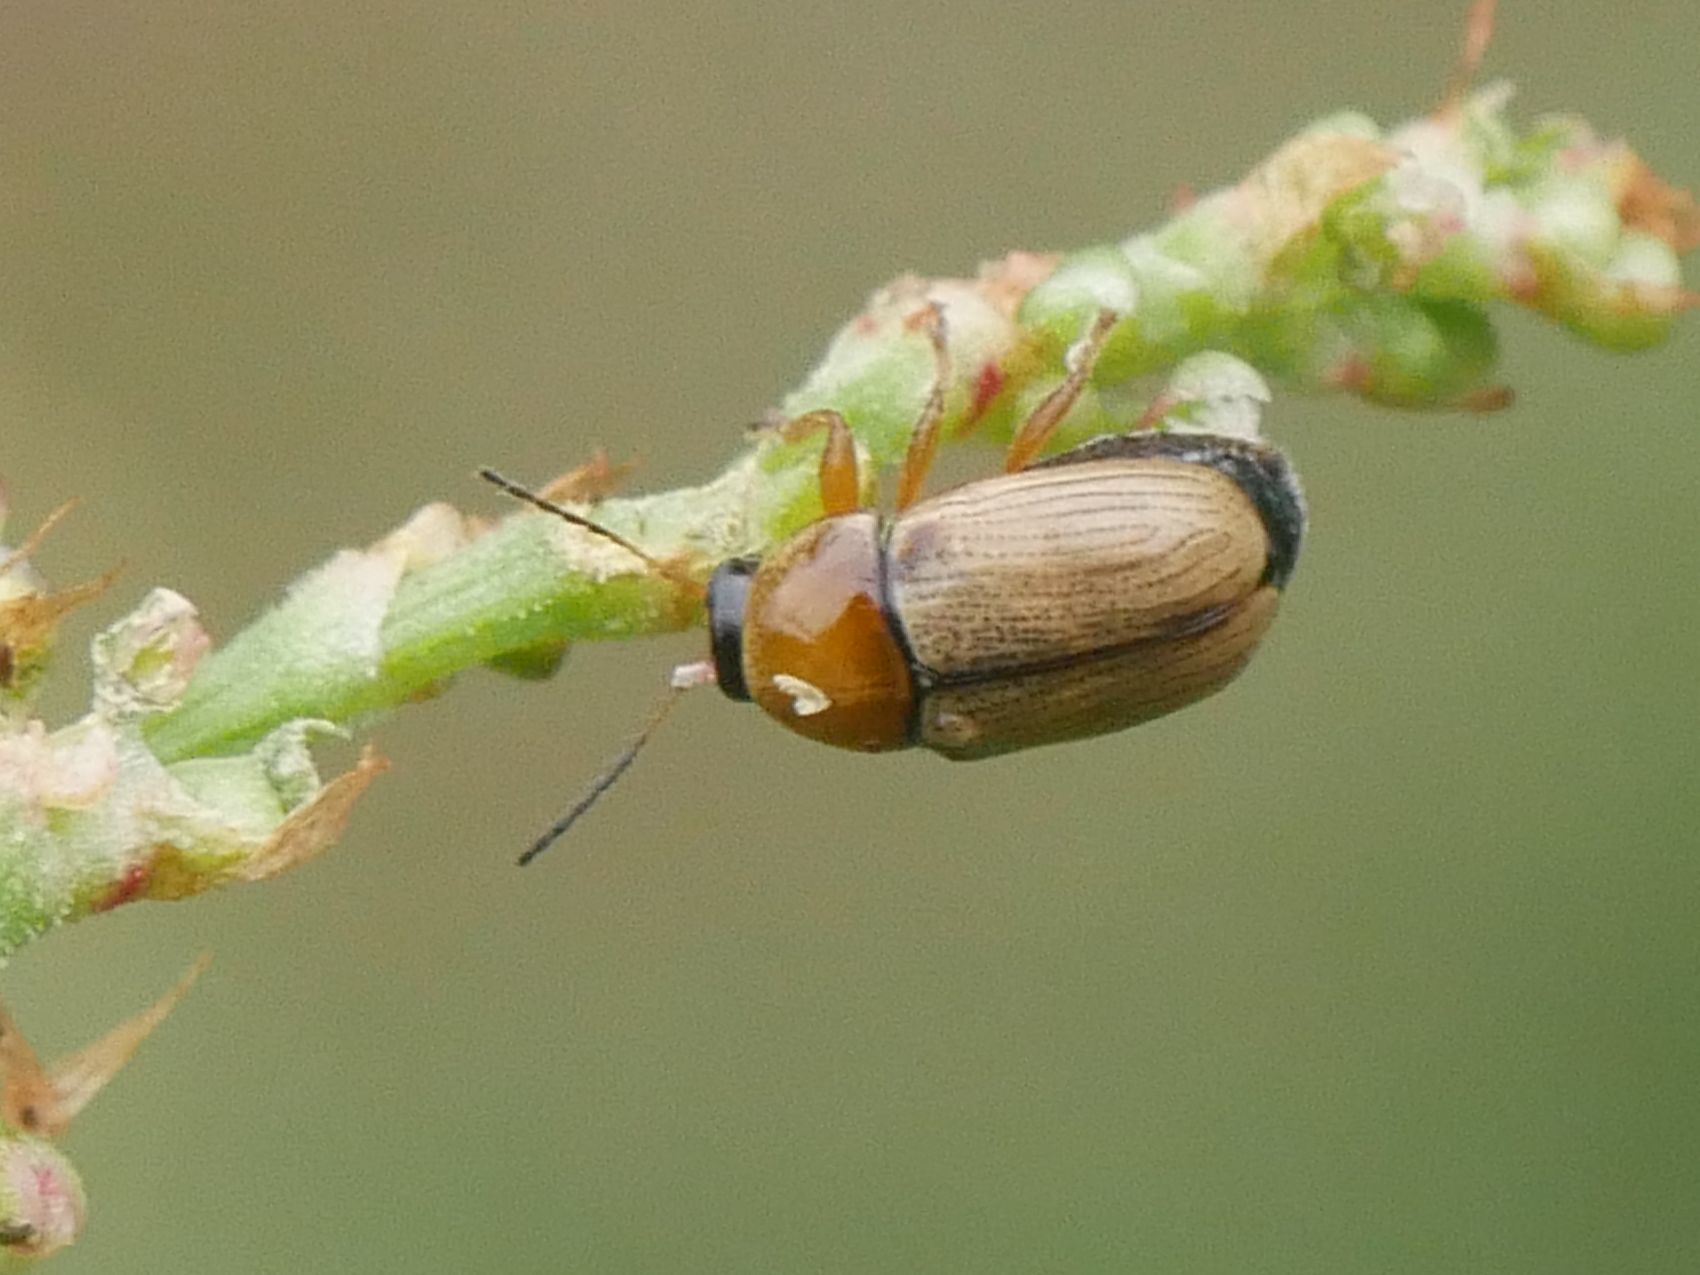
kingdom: Animalia
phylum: Arthropoda
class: Insecta
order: Coleoptera
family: Chrysomelidae
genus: Cryptocephalus
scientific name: Cryptocephalus fulvus
